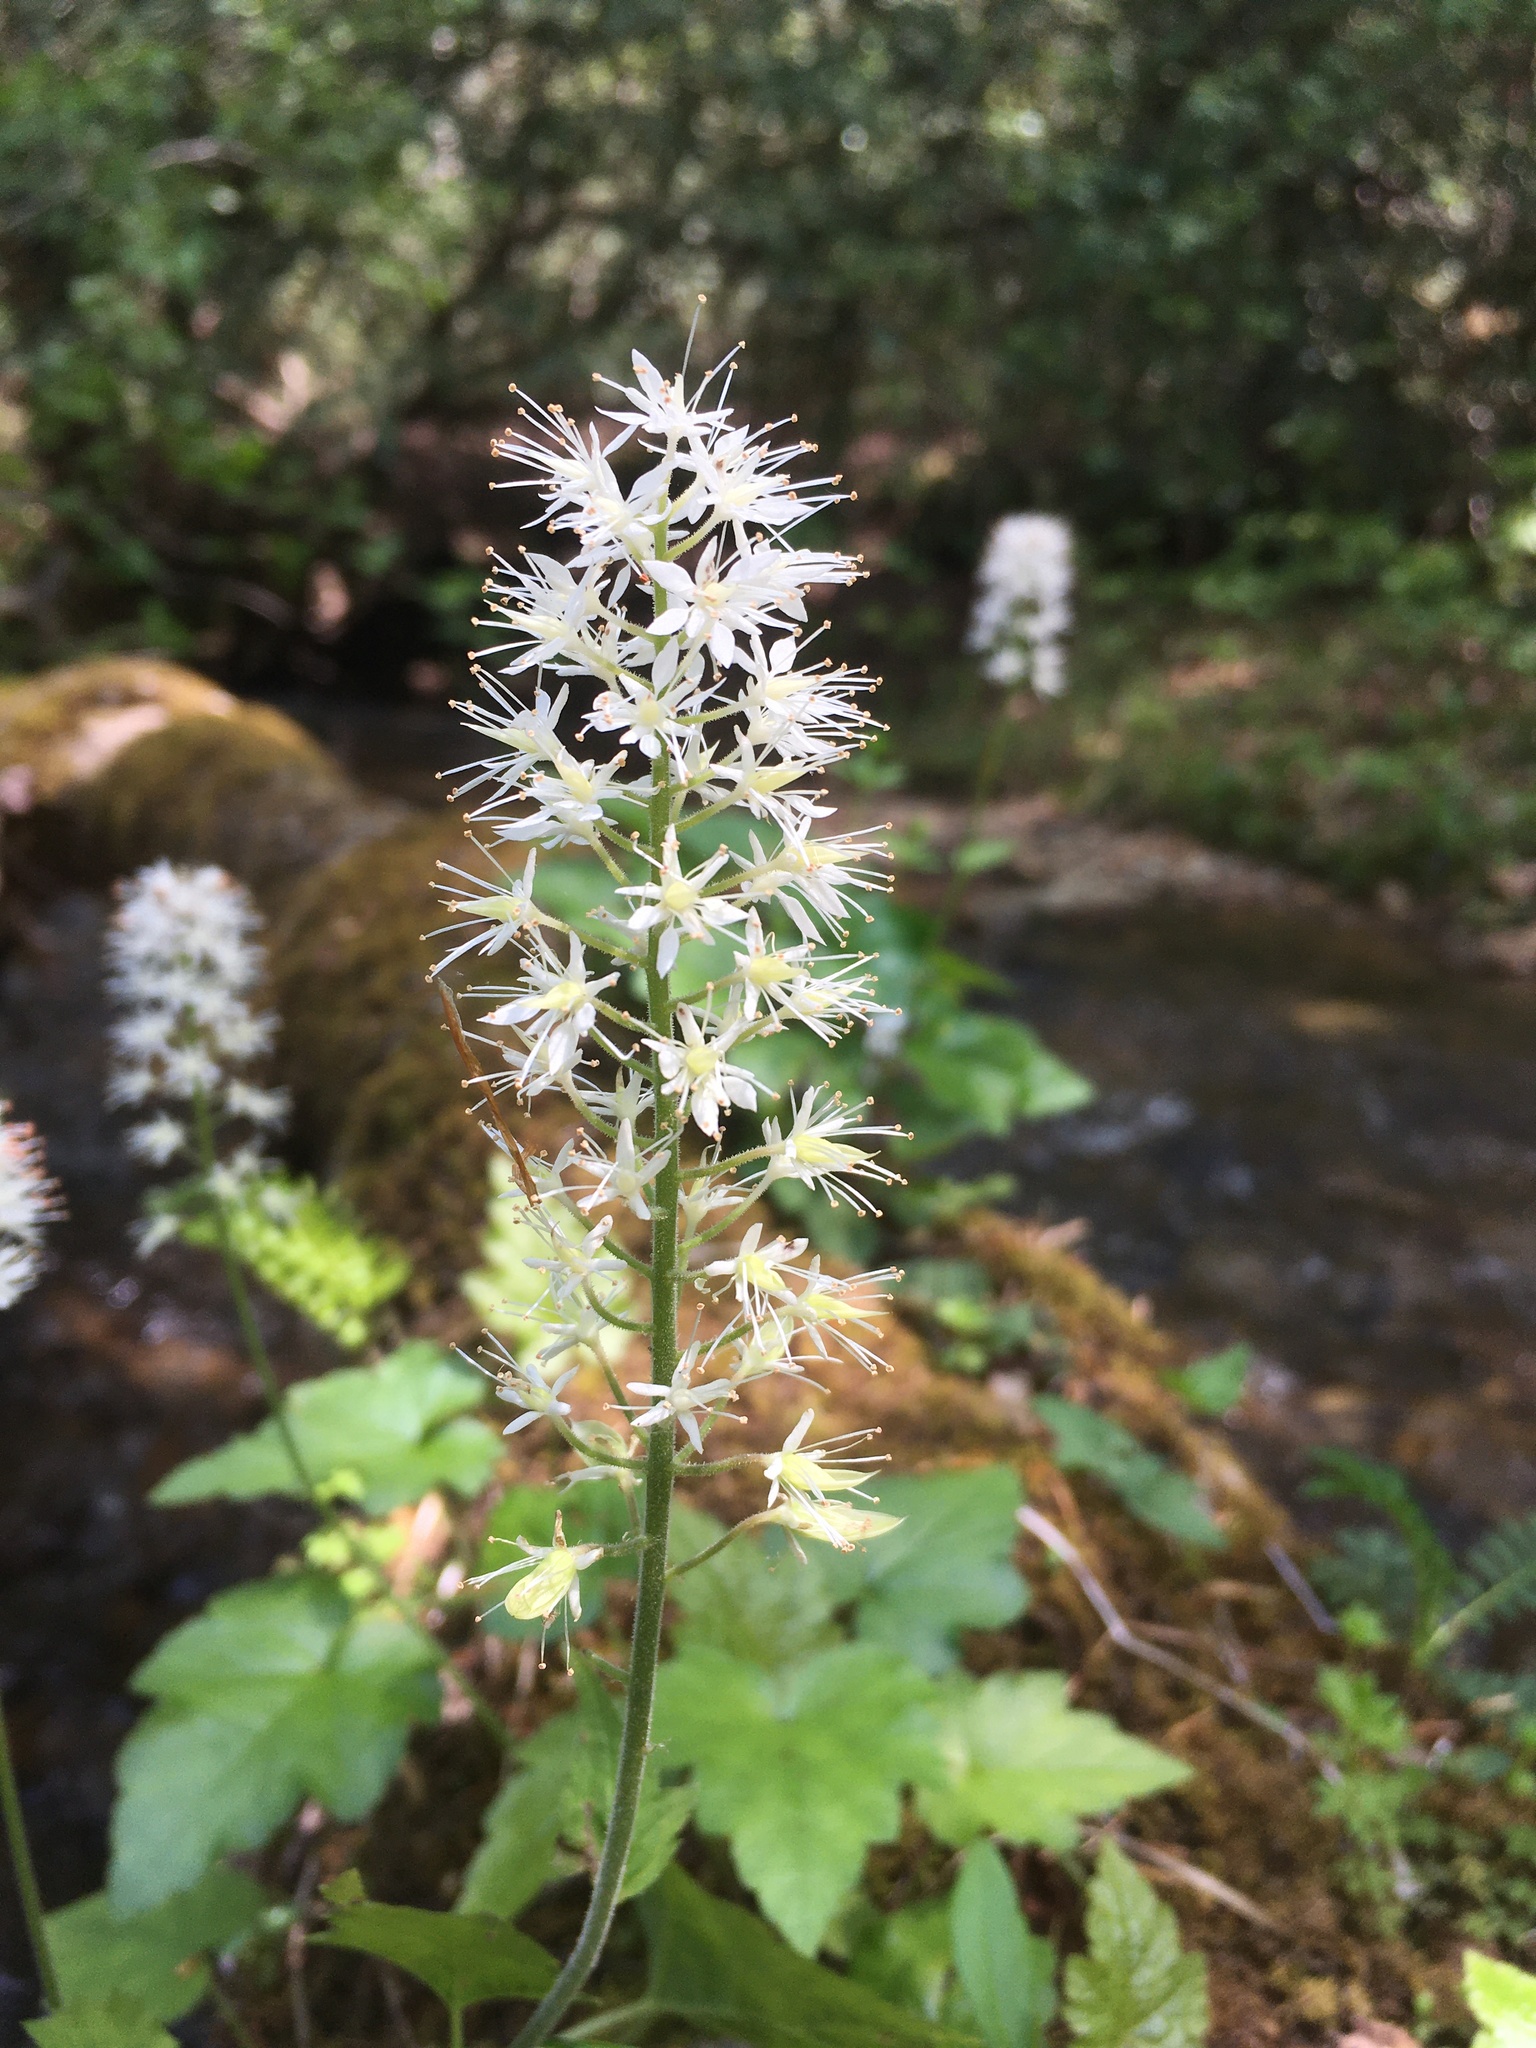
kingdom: Plantae
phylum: Tracheophyta
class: Magnoliopsida
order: Saxifragales
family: Saxifragaceae
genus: Tiarella
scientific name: Tiarella stolonifera
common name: Stoloniferous foamflower
